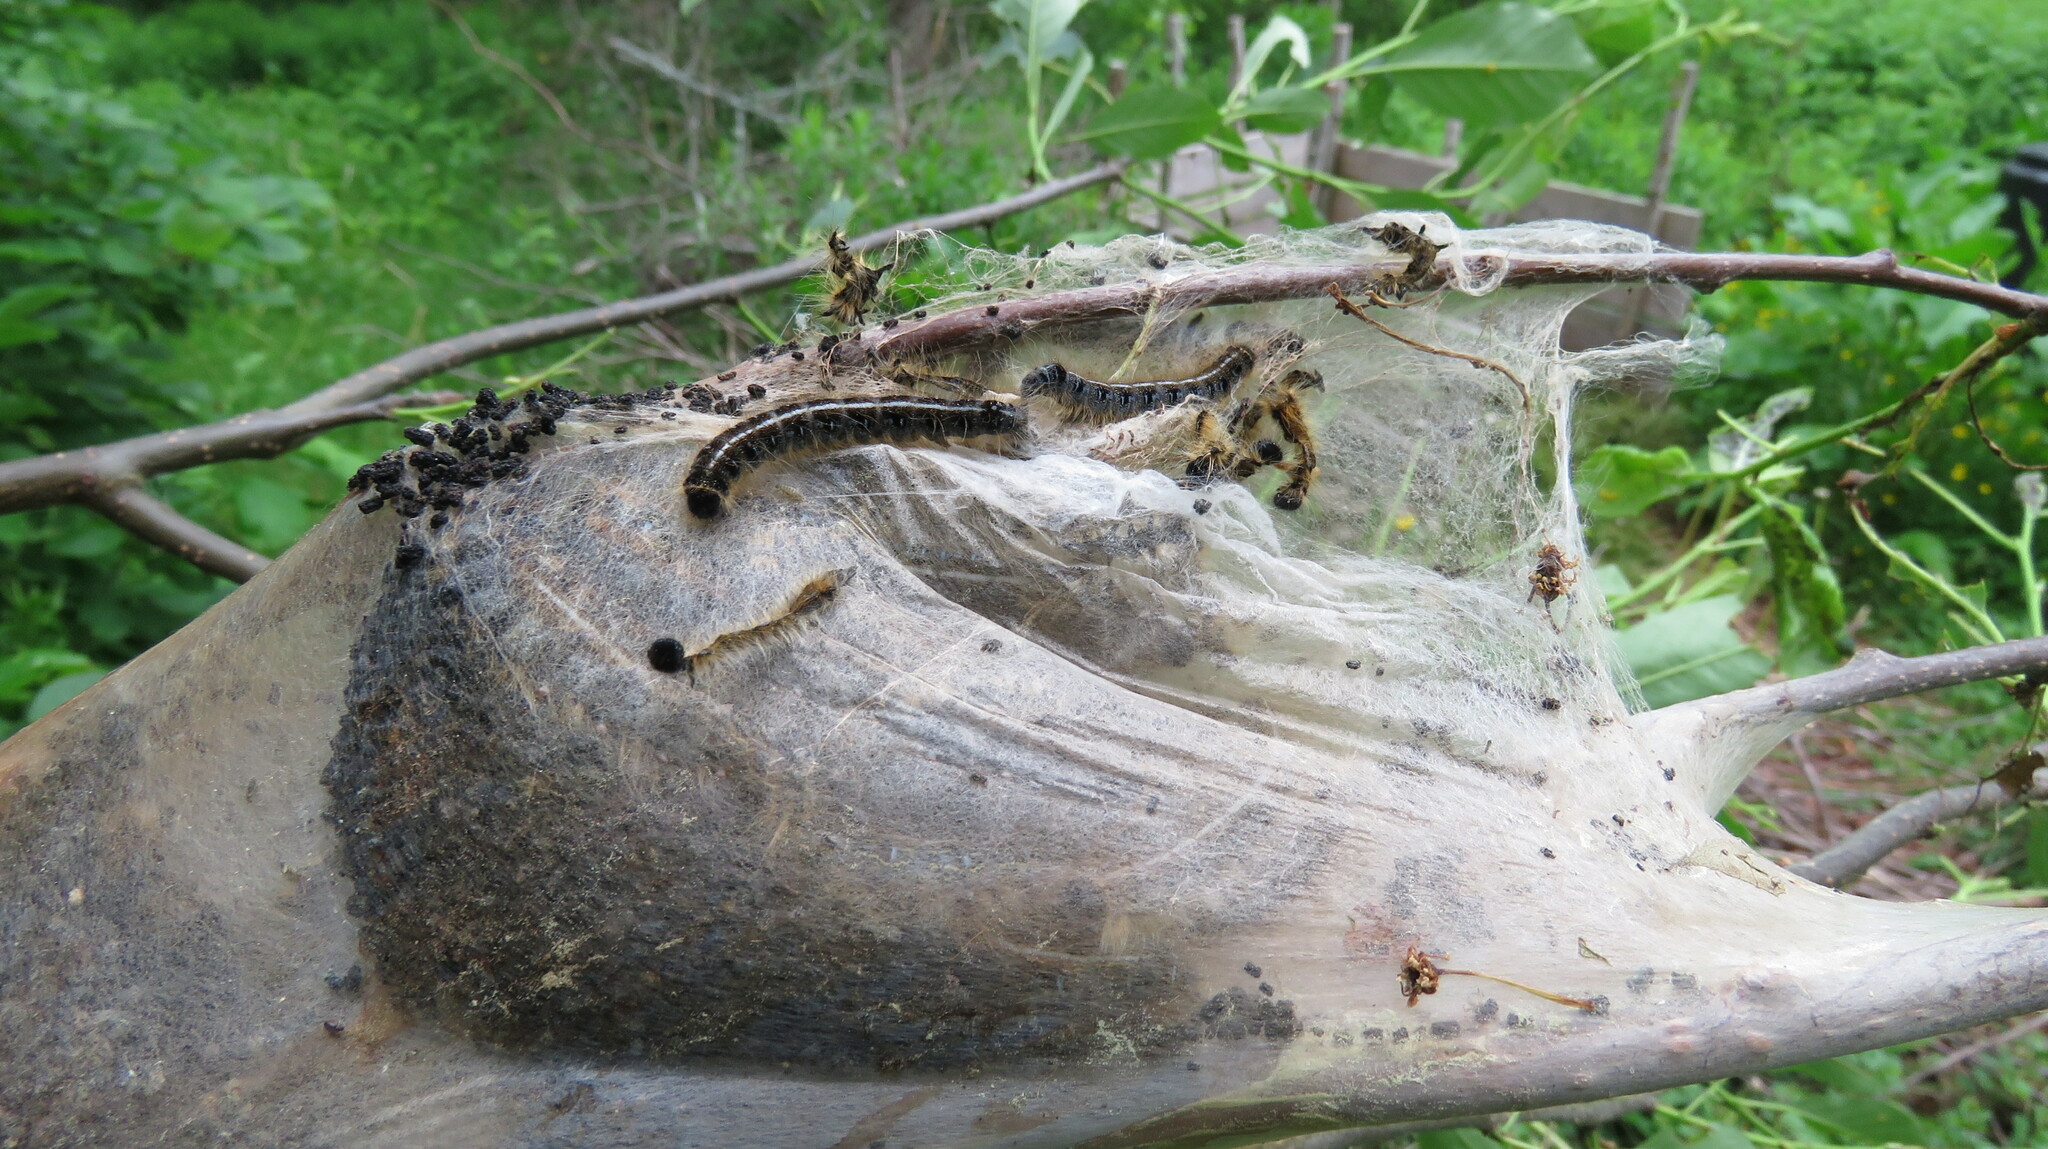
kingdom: Animalia
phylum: Arthropoda
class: Insecta
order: Lepidoptera
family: Lasiocampidae
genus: Malacosoma
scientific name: Malacosoma americana
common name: Eastern tent caterpillar moth
